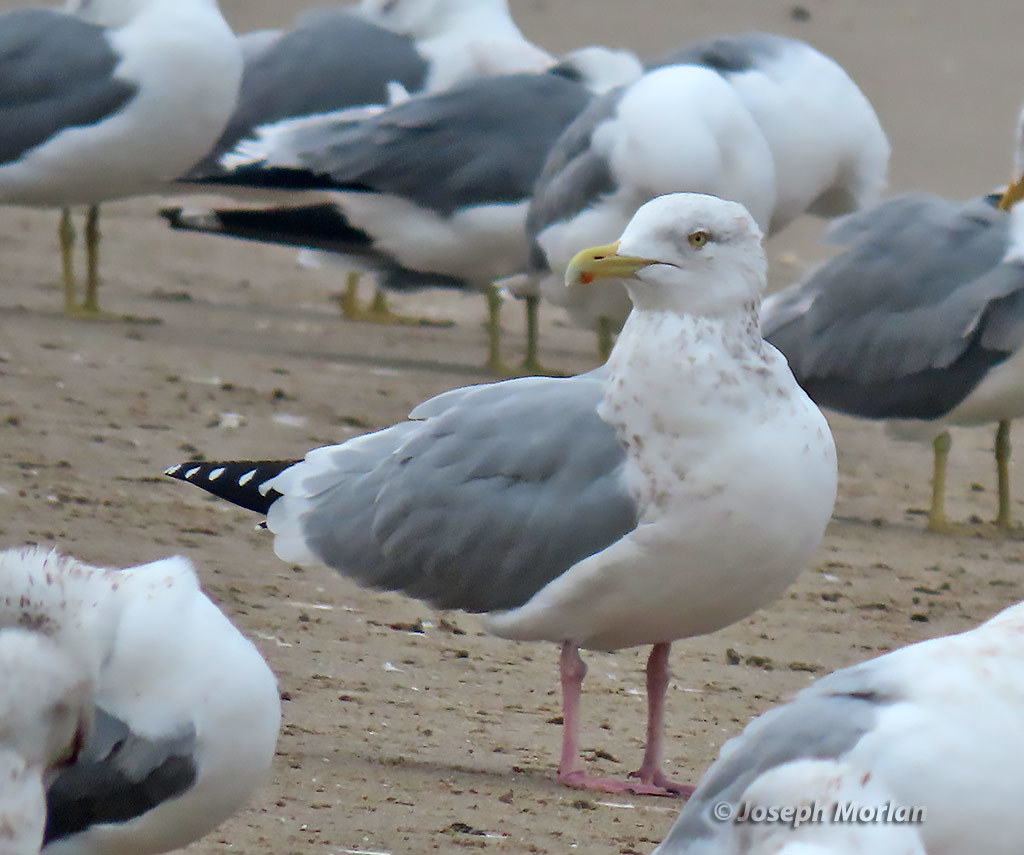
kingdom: Animalia
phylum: Chordata
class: Aves
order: Charadriiformes
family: Laridae
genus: Larus
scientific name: Larus argentatus
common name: Herring gull
